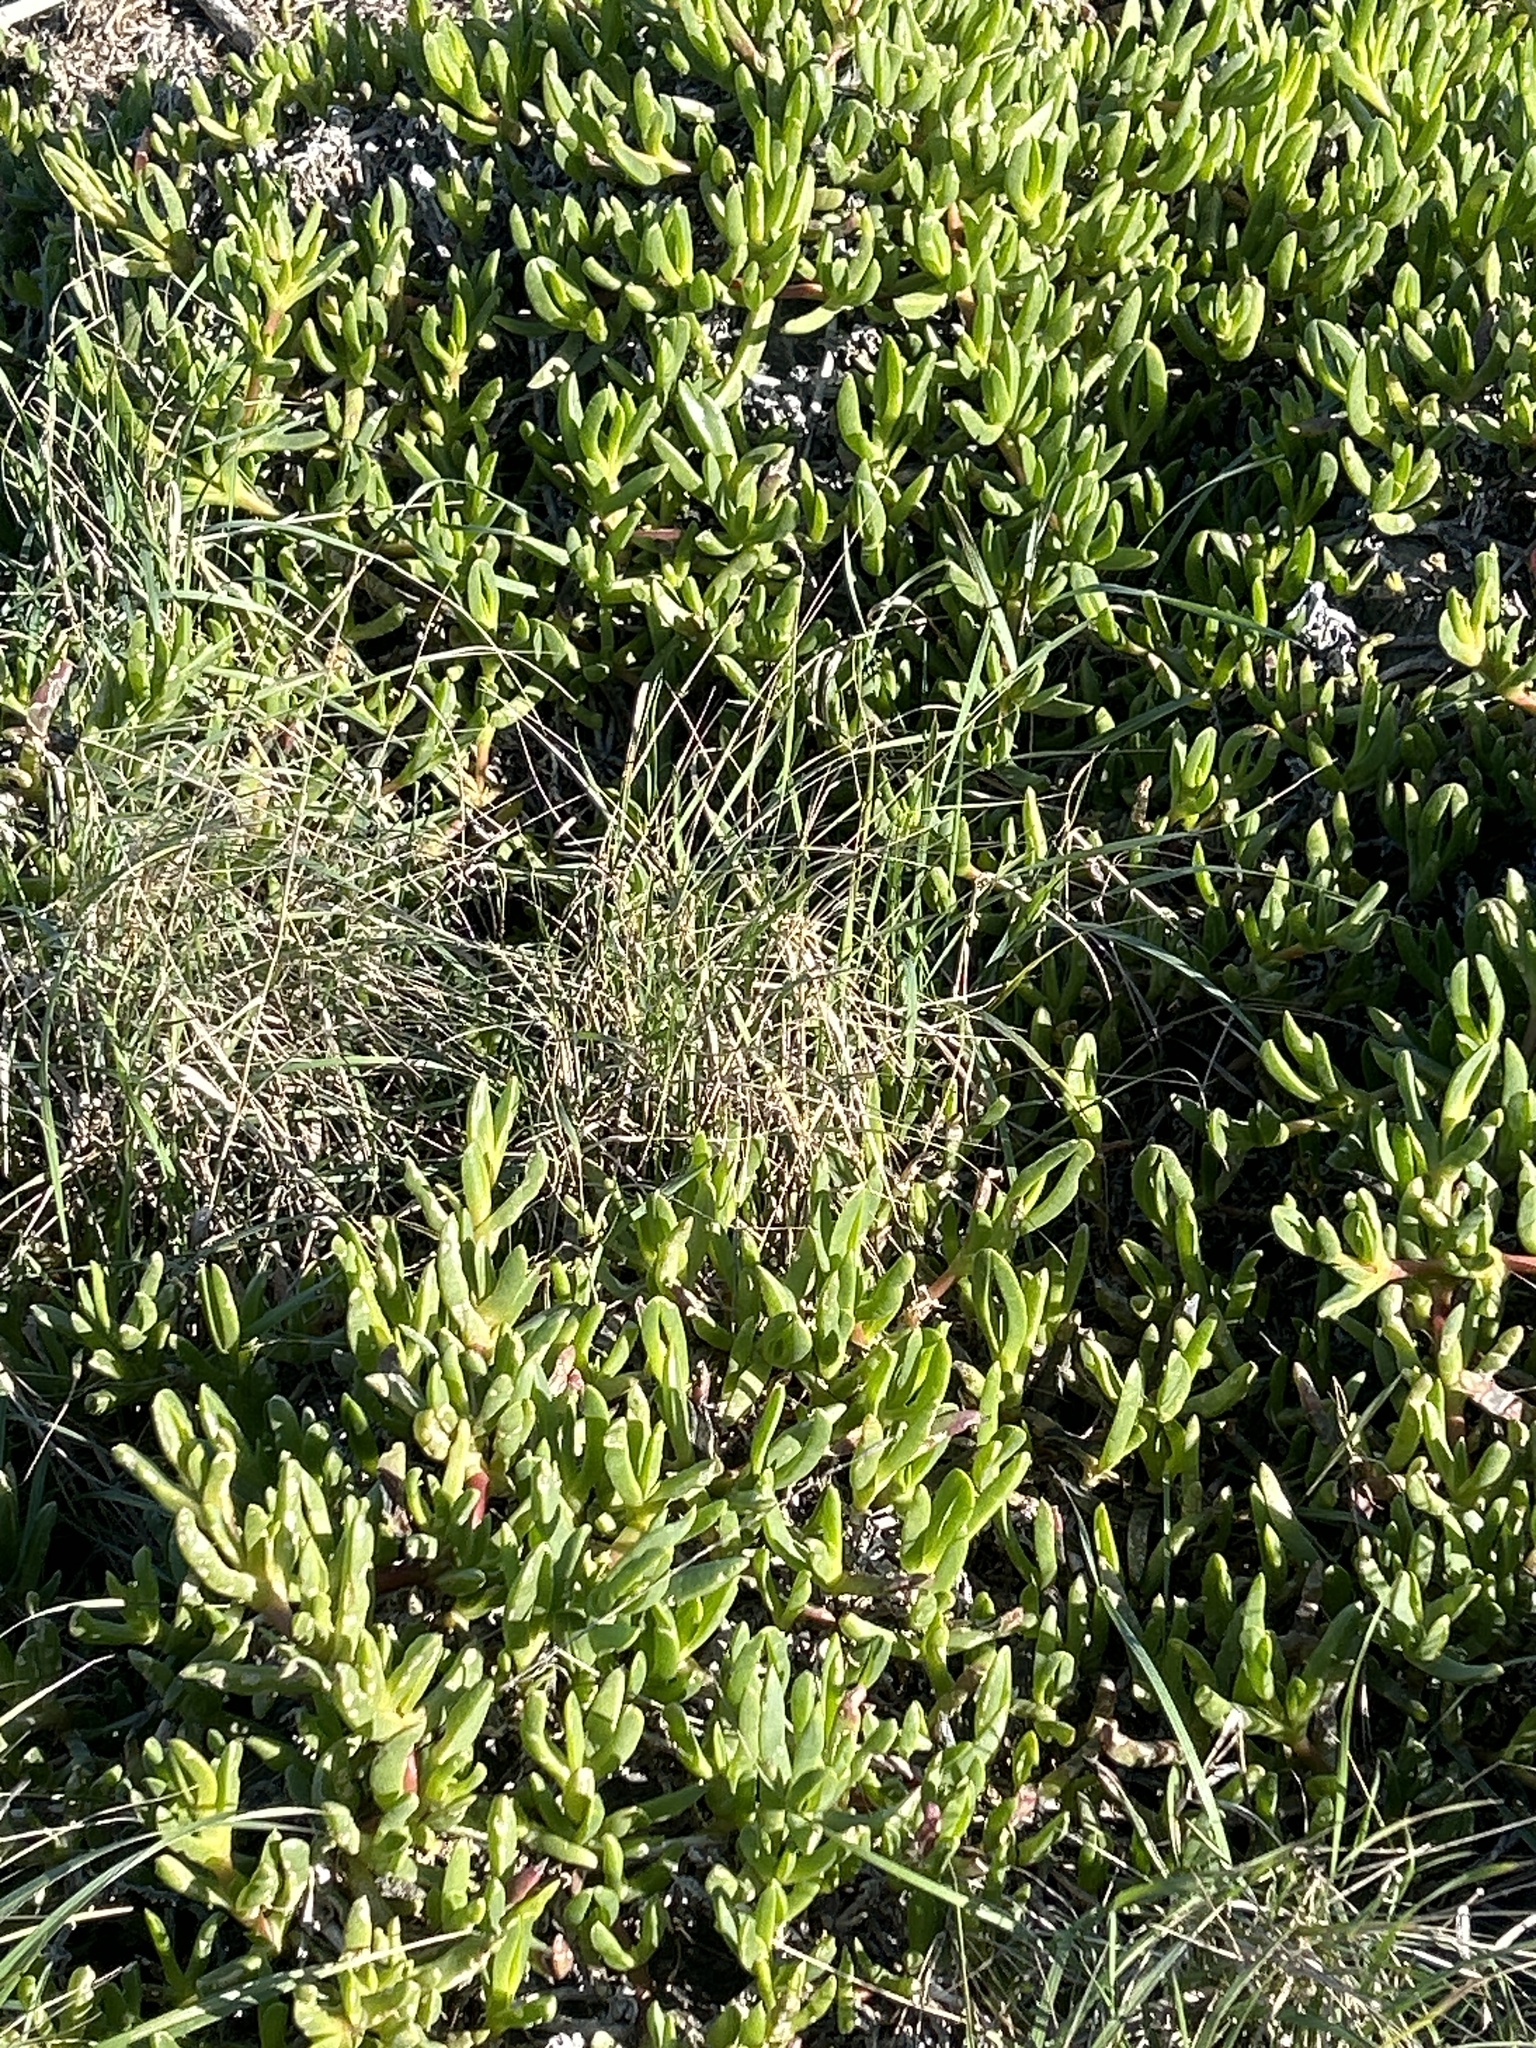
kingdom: Plantae
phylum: Tracheophyta
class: Magnoliopsida
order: Caryophyllales
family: Aizoaceae
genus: Disphyma
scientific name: Disphyma australe
